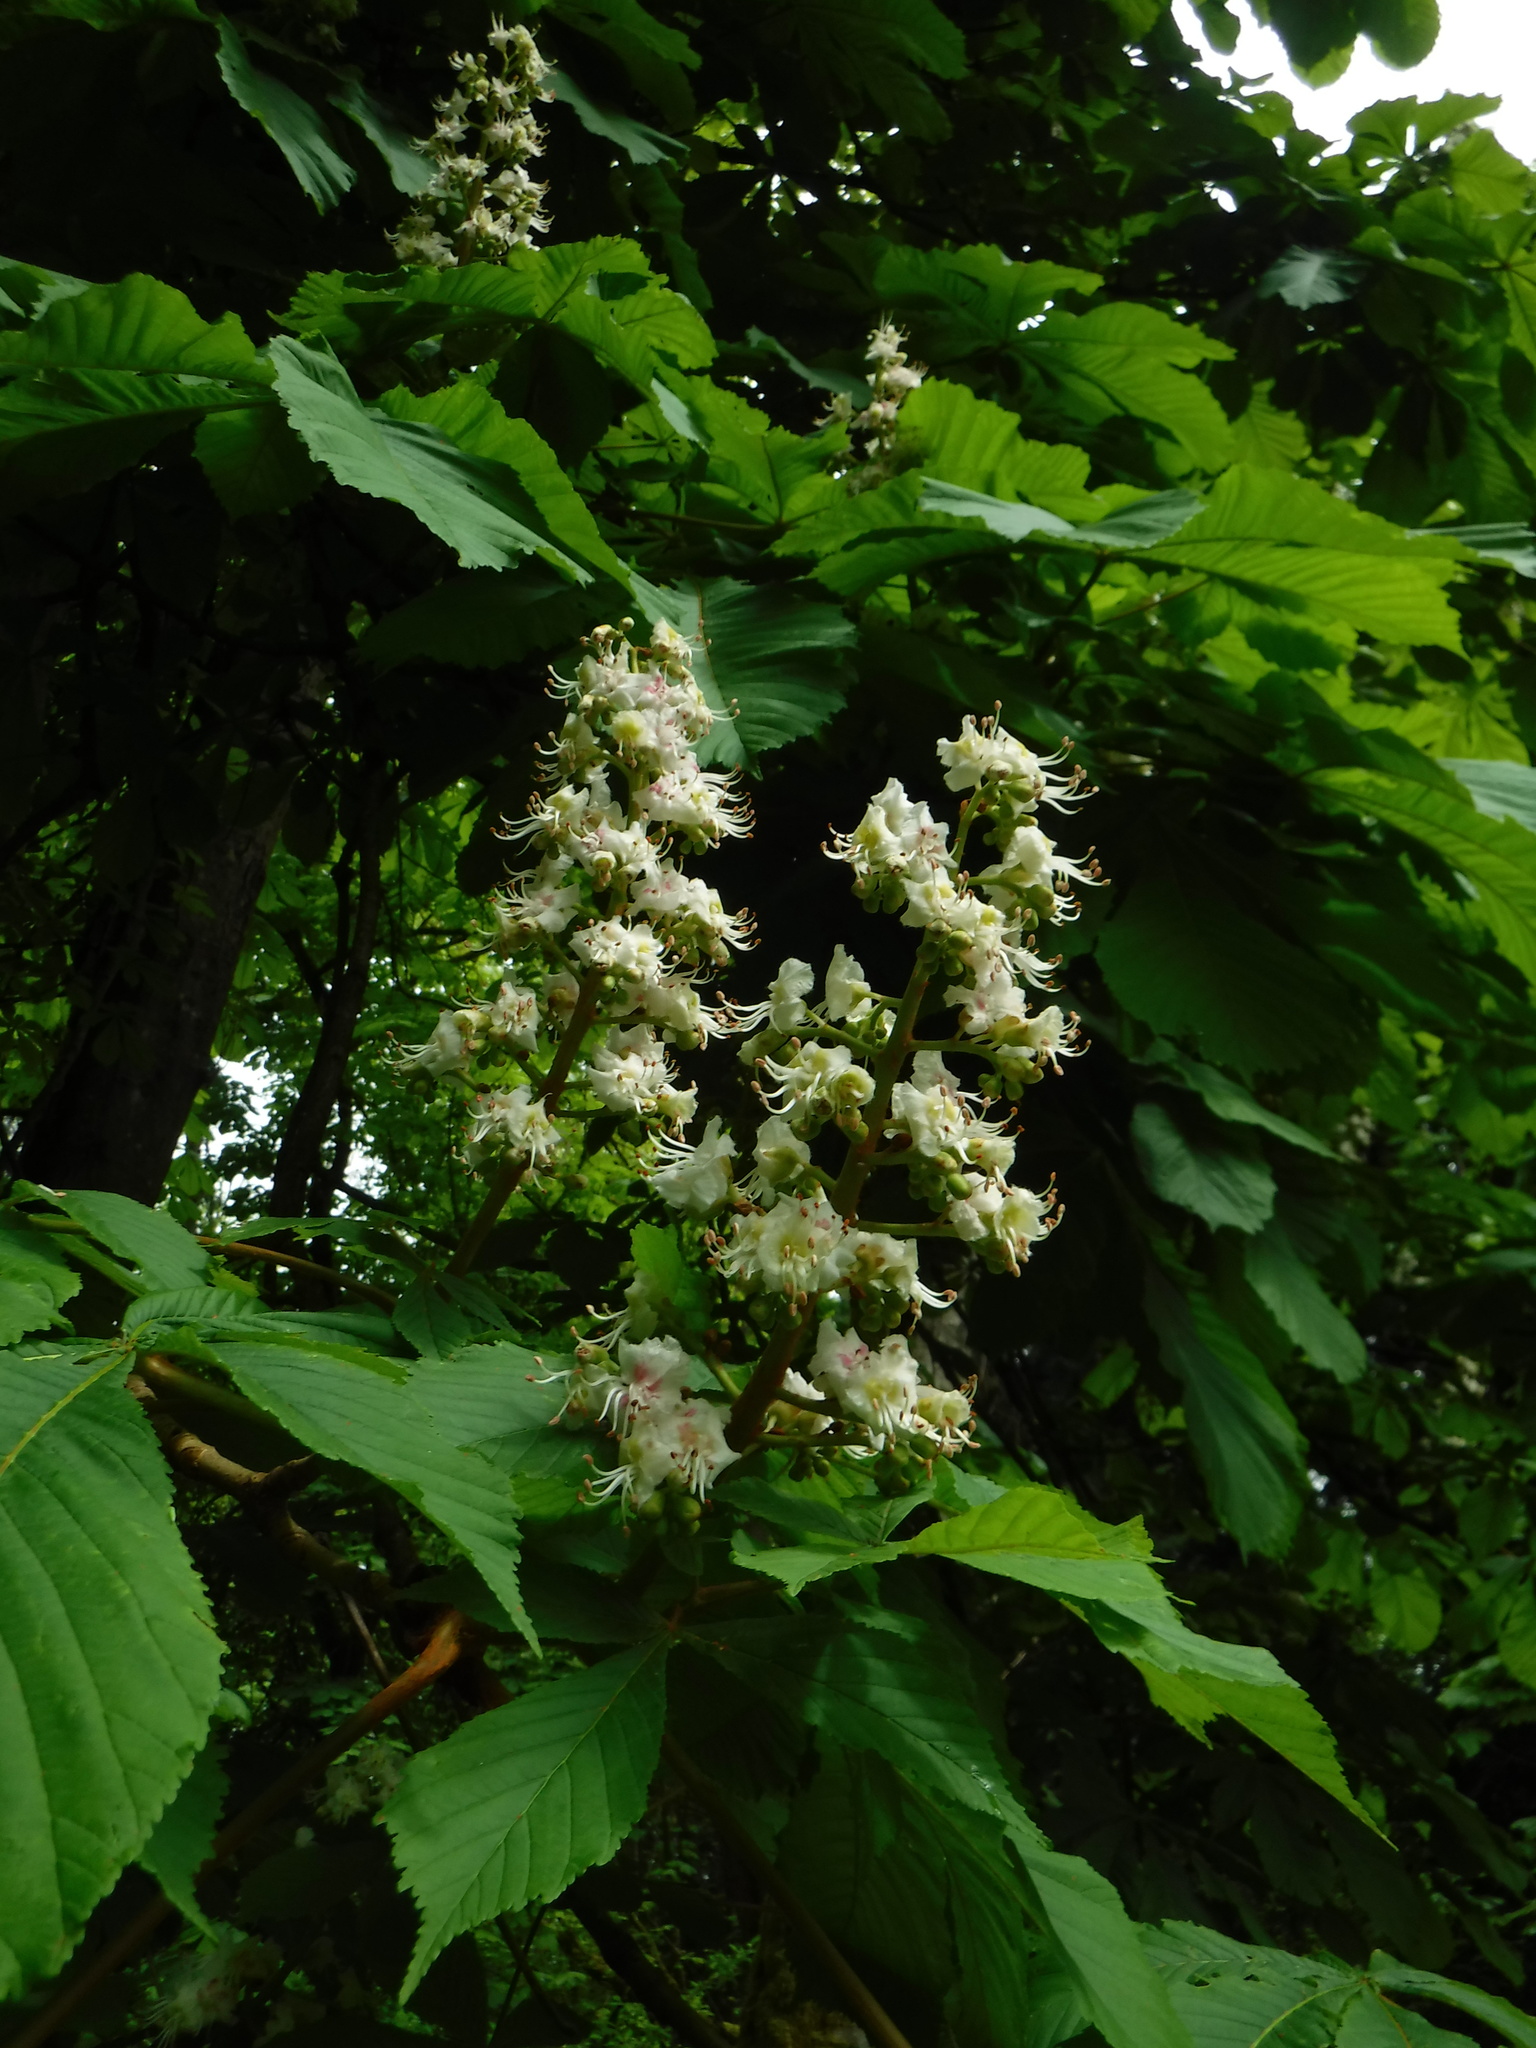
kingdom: Plantae
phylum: Tracheophyta
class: Magnoliopsida
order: Sapindales
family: Sapindaceae
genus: Aesculus
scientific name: Aesculus hippocastanum
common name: Horse-chestnut
